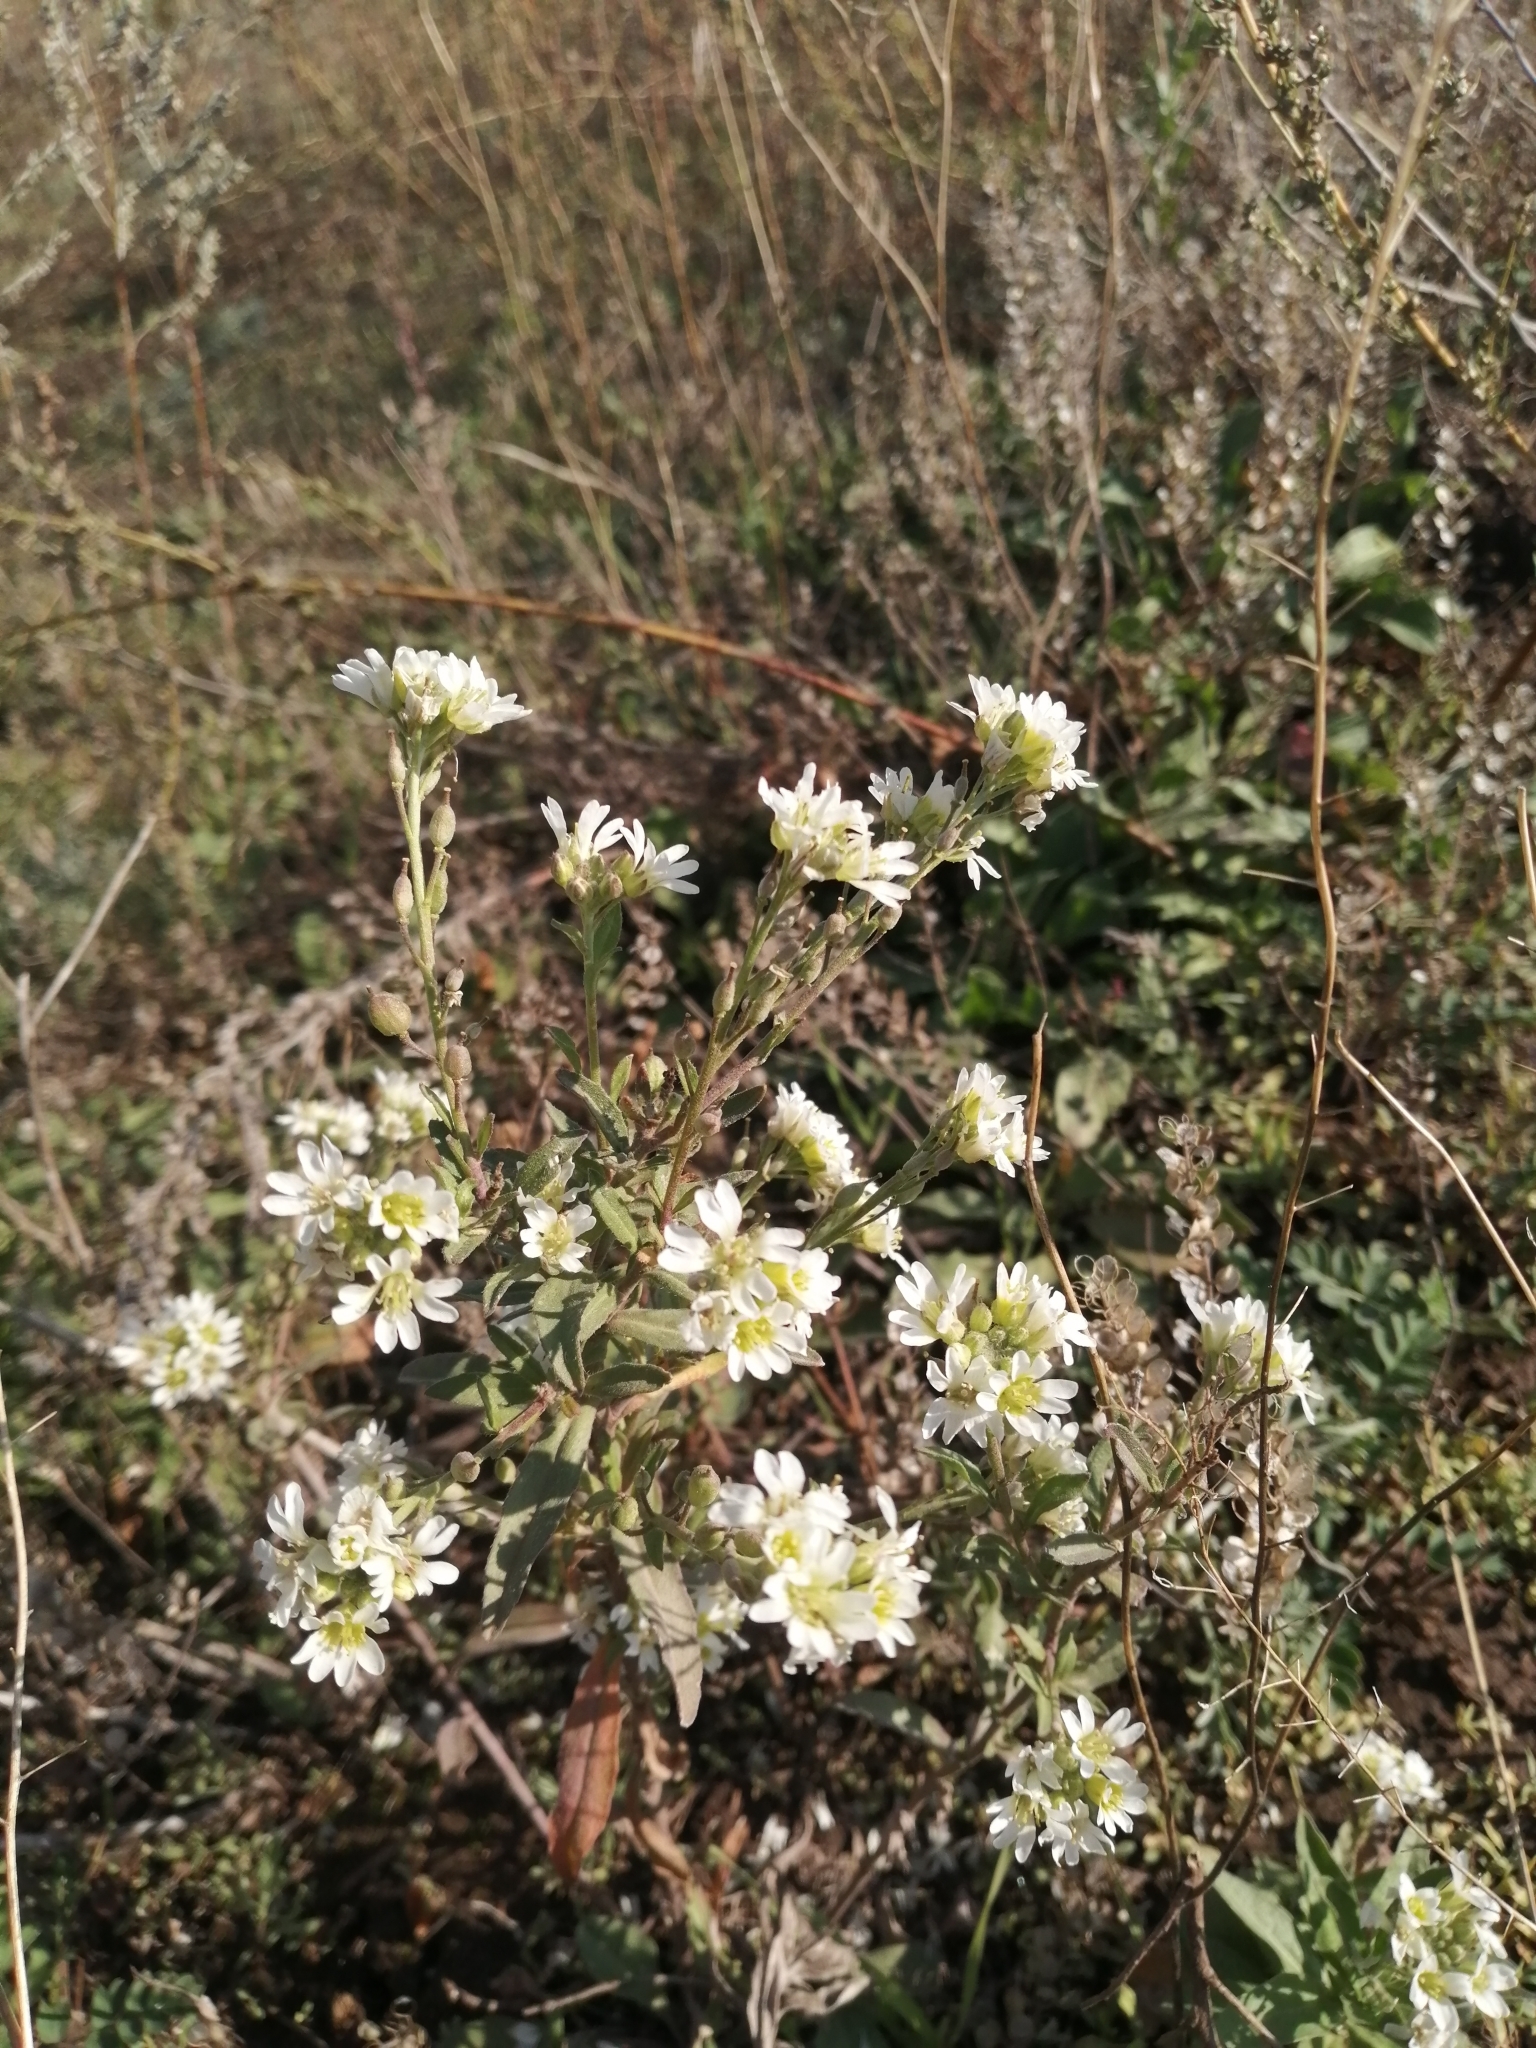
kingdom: Plantae
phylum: Tracheophyta
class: Magnoliopsida
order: Brassicales
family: Brassicaceae
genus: Berteroa
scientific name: Berteroa incana
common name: Hoary alison
